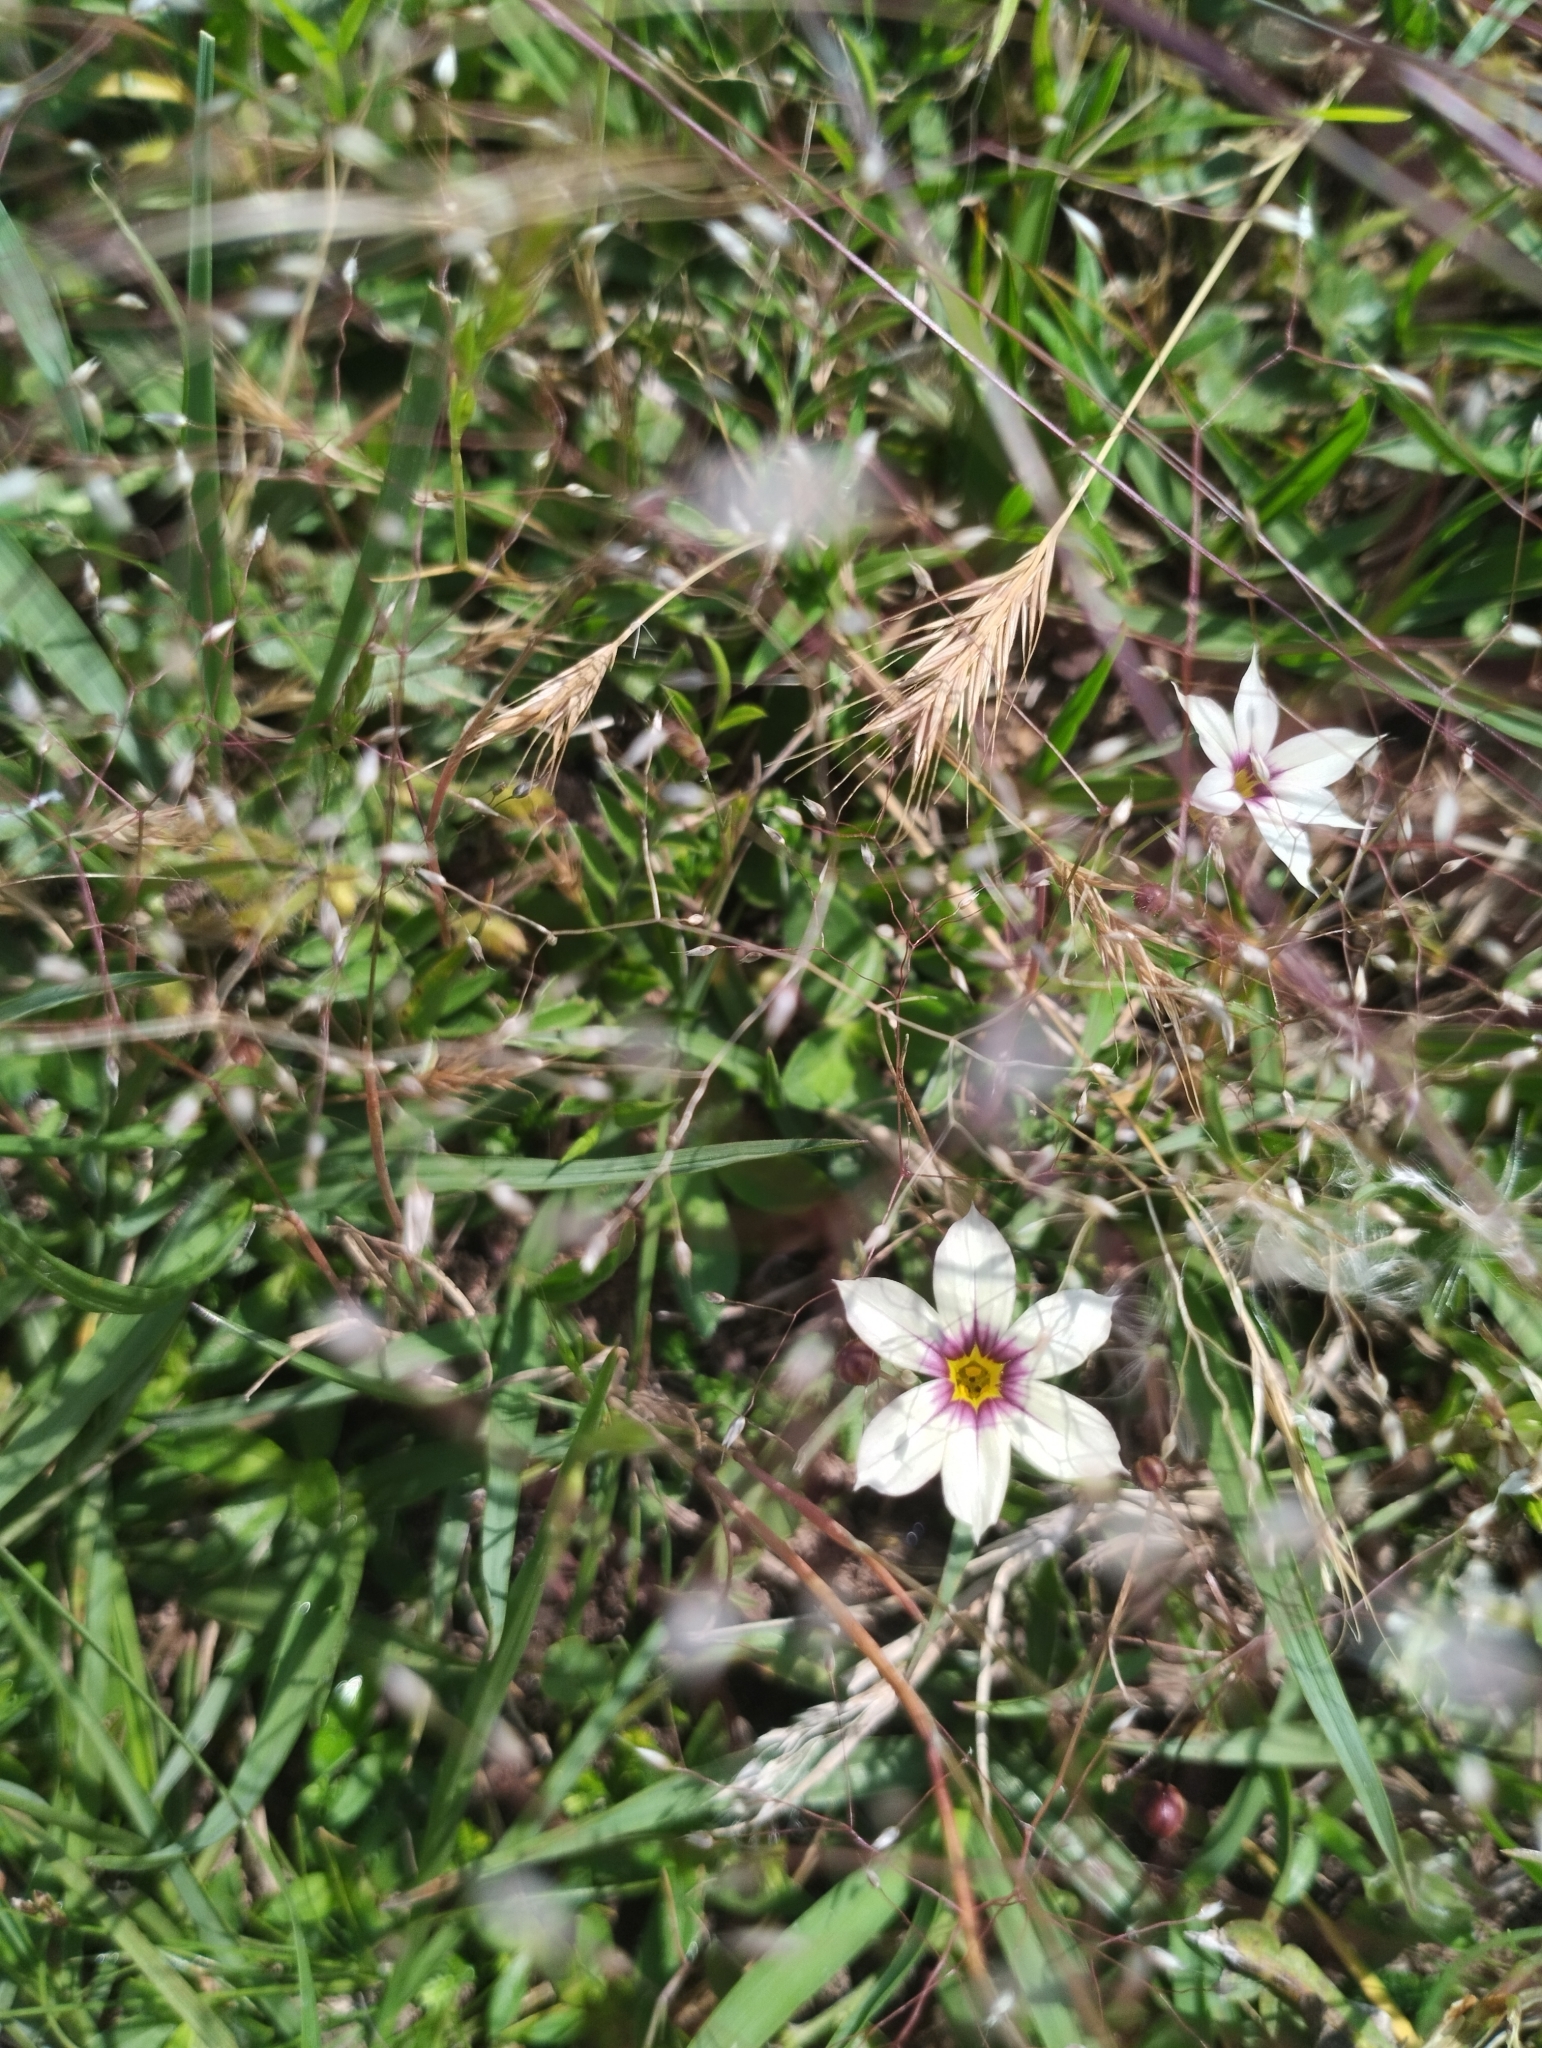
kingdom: Plantae
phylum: Tracheophyta
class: Liliopsida
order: Asparagales
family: Iridaceae
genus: Sisyrinchium
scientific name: Sisyrinchium micranthum
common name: Bermuda pigroot
